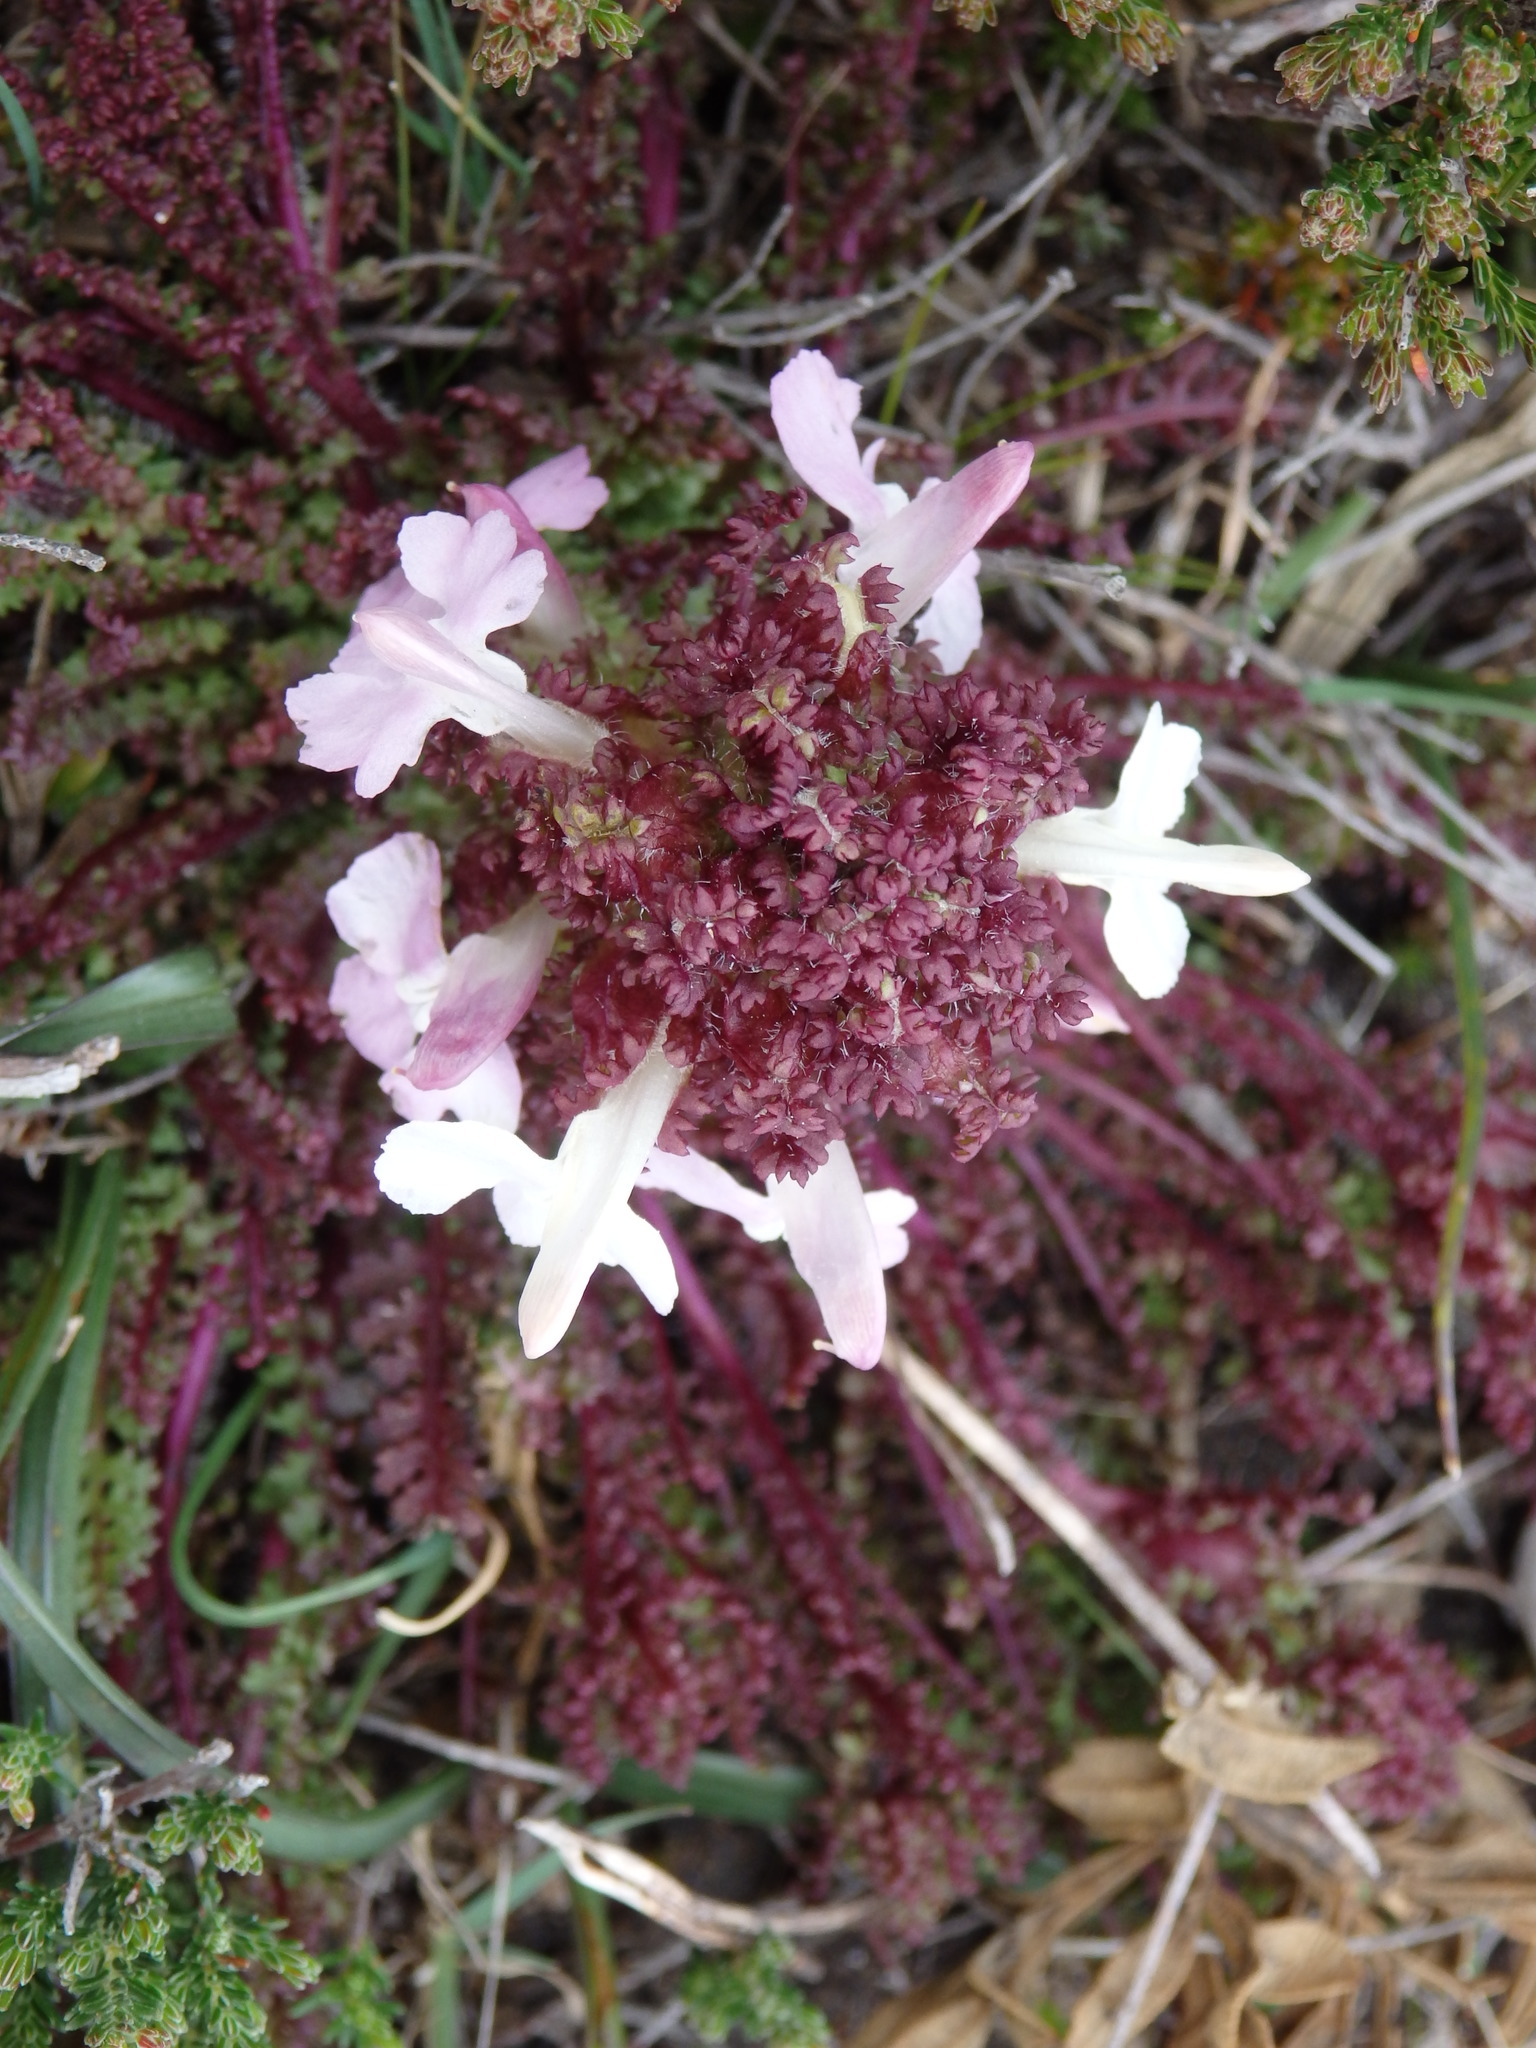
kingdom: Plantae
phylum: Tracheophyta
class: Magnoliopsida
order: Lamiales
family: Orobanchaceae
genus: Pedicularis
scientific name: Pedicularis sylvatica
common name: Lousewort
